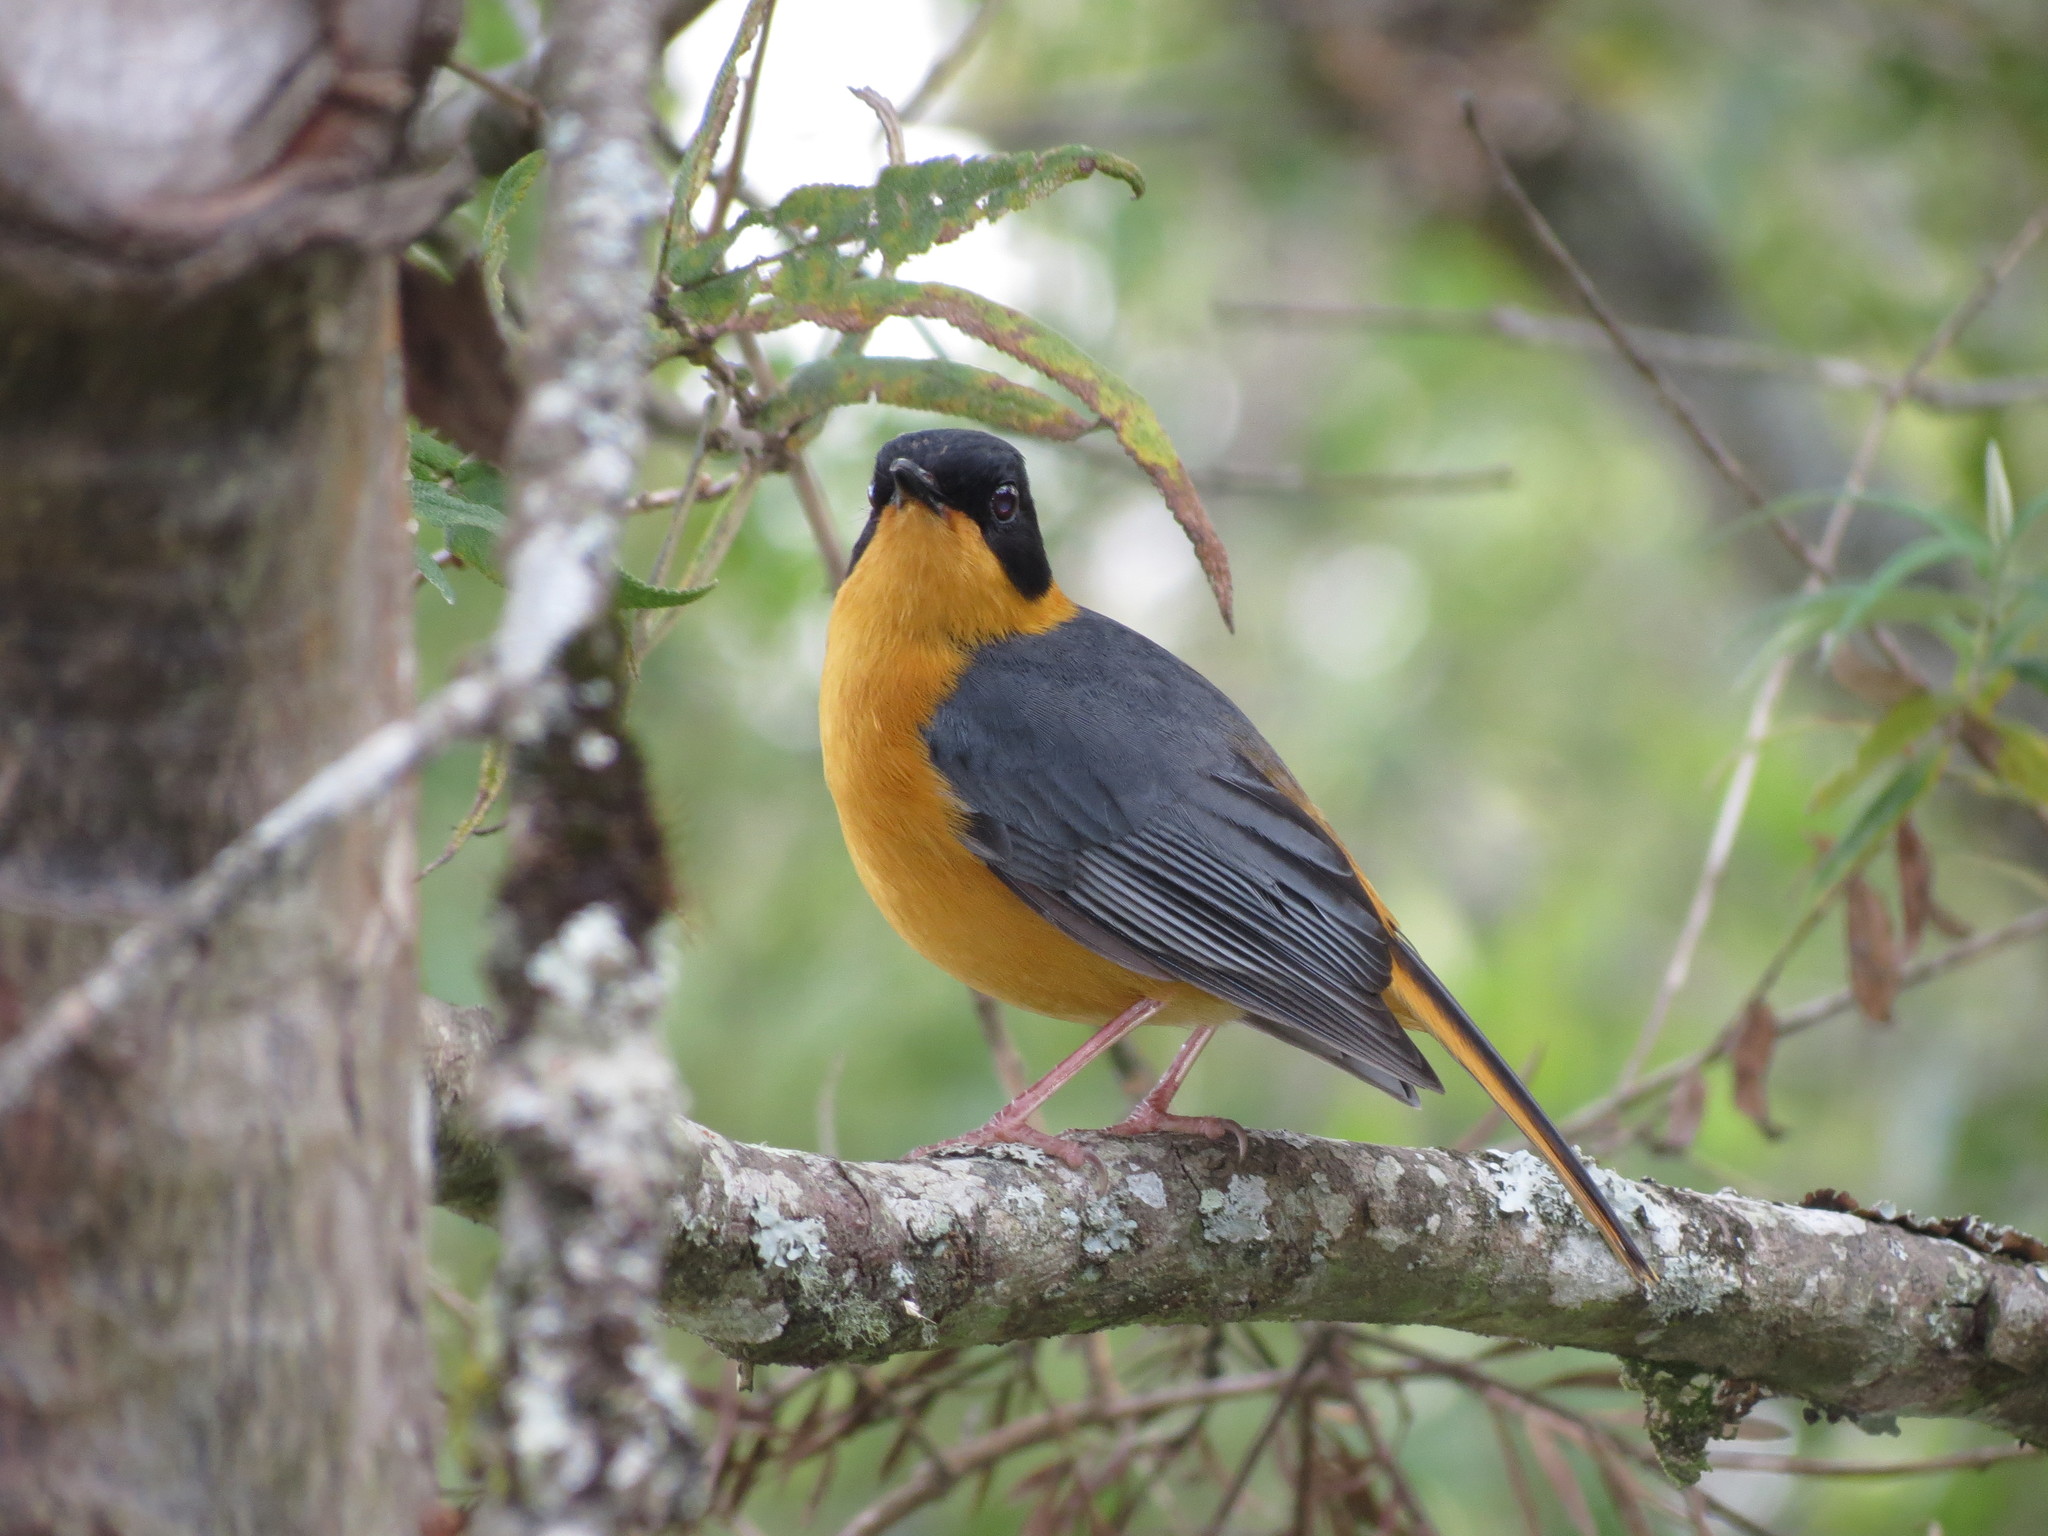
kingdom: Animalia
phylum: Chordata
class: Aves
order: Passeriformes
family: Muscicapidae
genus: Cossypha
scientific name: Cossypha dichroa
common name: Chorister robin-chat
